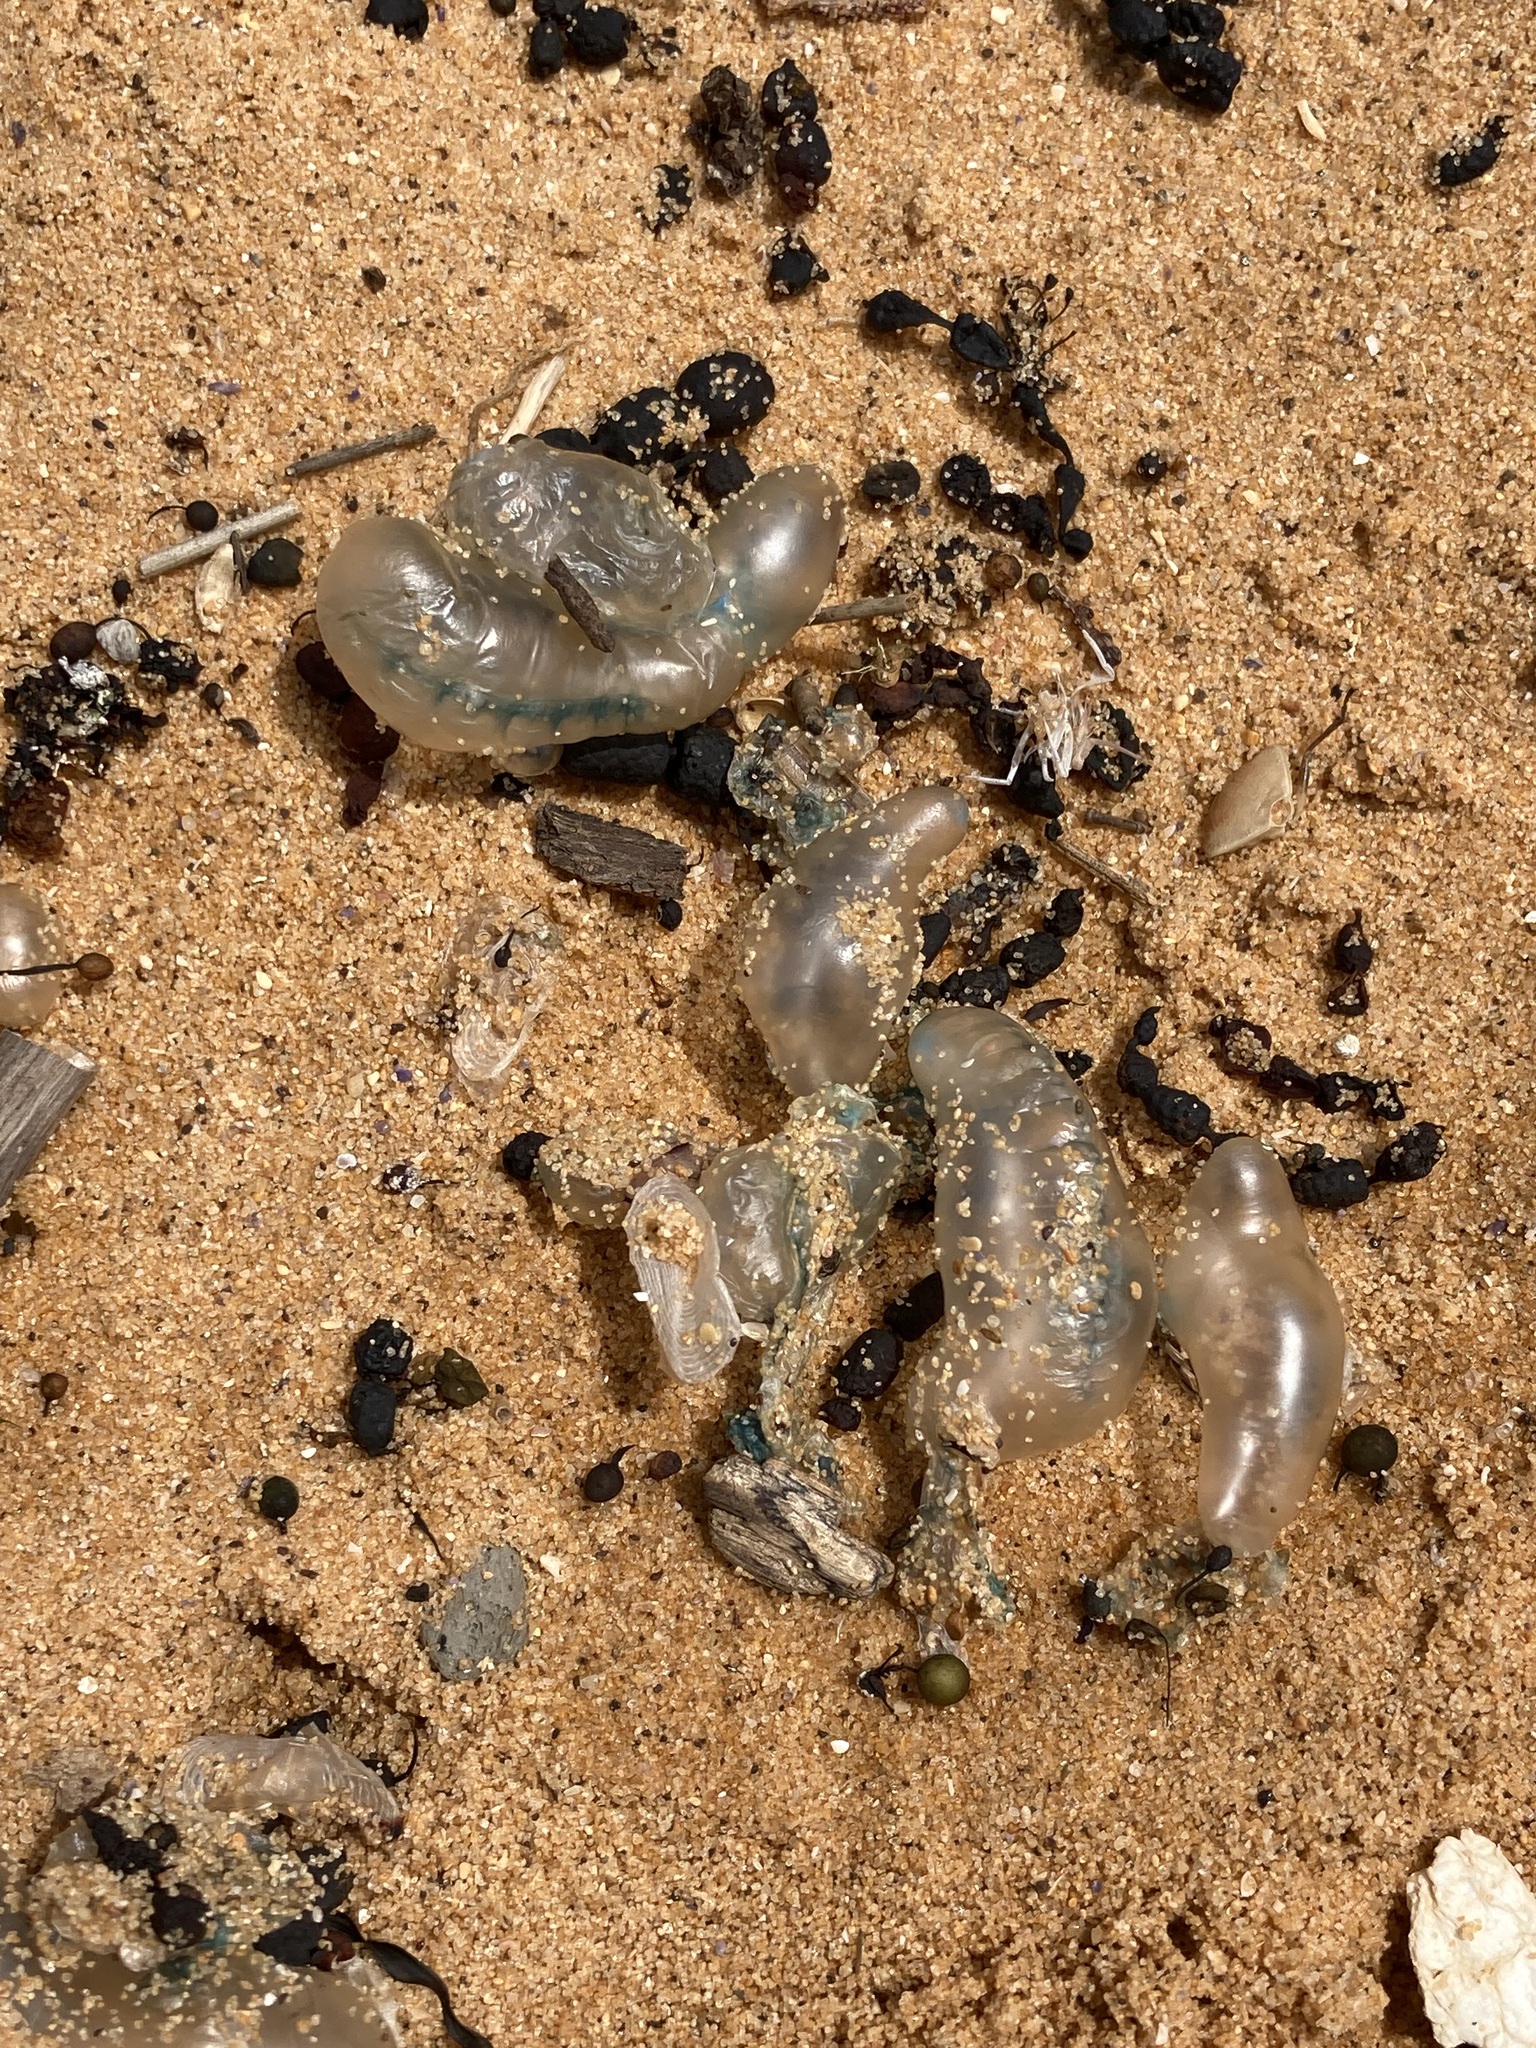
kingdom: Animalia
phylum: Cnidaria
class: Hydrozoa
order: Siphonophorae
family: Physaliidae
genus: Physalia
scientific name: Physalia physalis
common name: Portuguese man-of-war
